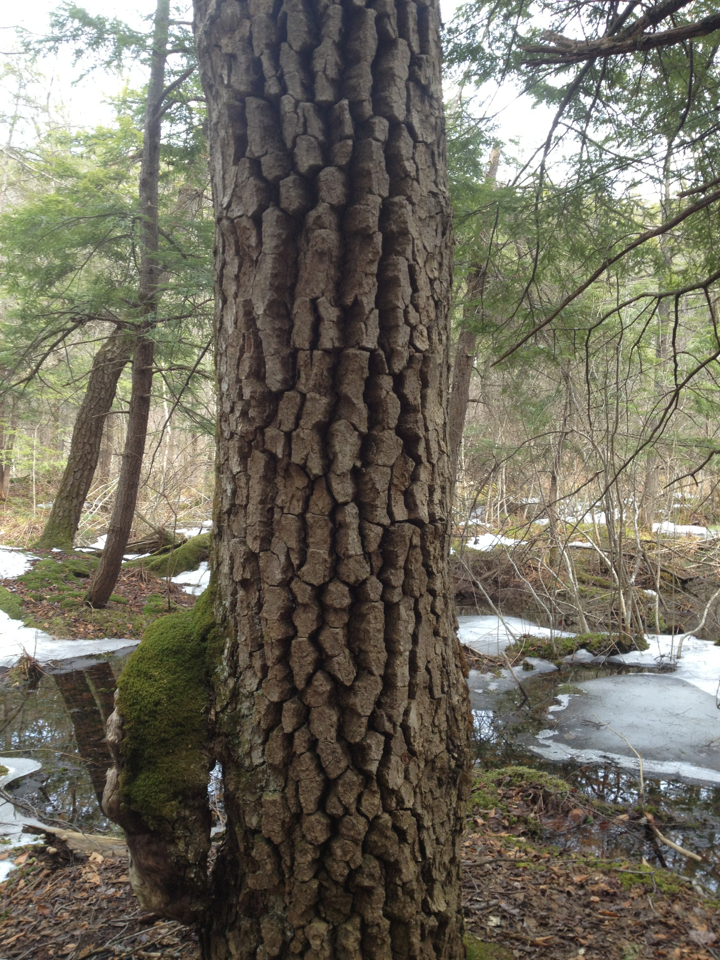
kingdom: Plantae
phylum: Tracheophyta
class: Magnoliopsida
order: Cornales
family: Nyssaceae
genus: Nyssa
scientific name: Nyssa sylvatica
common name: Black tupelo
